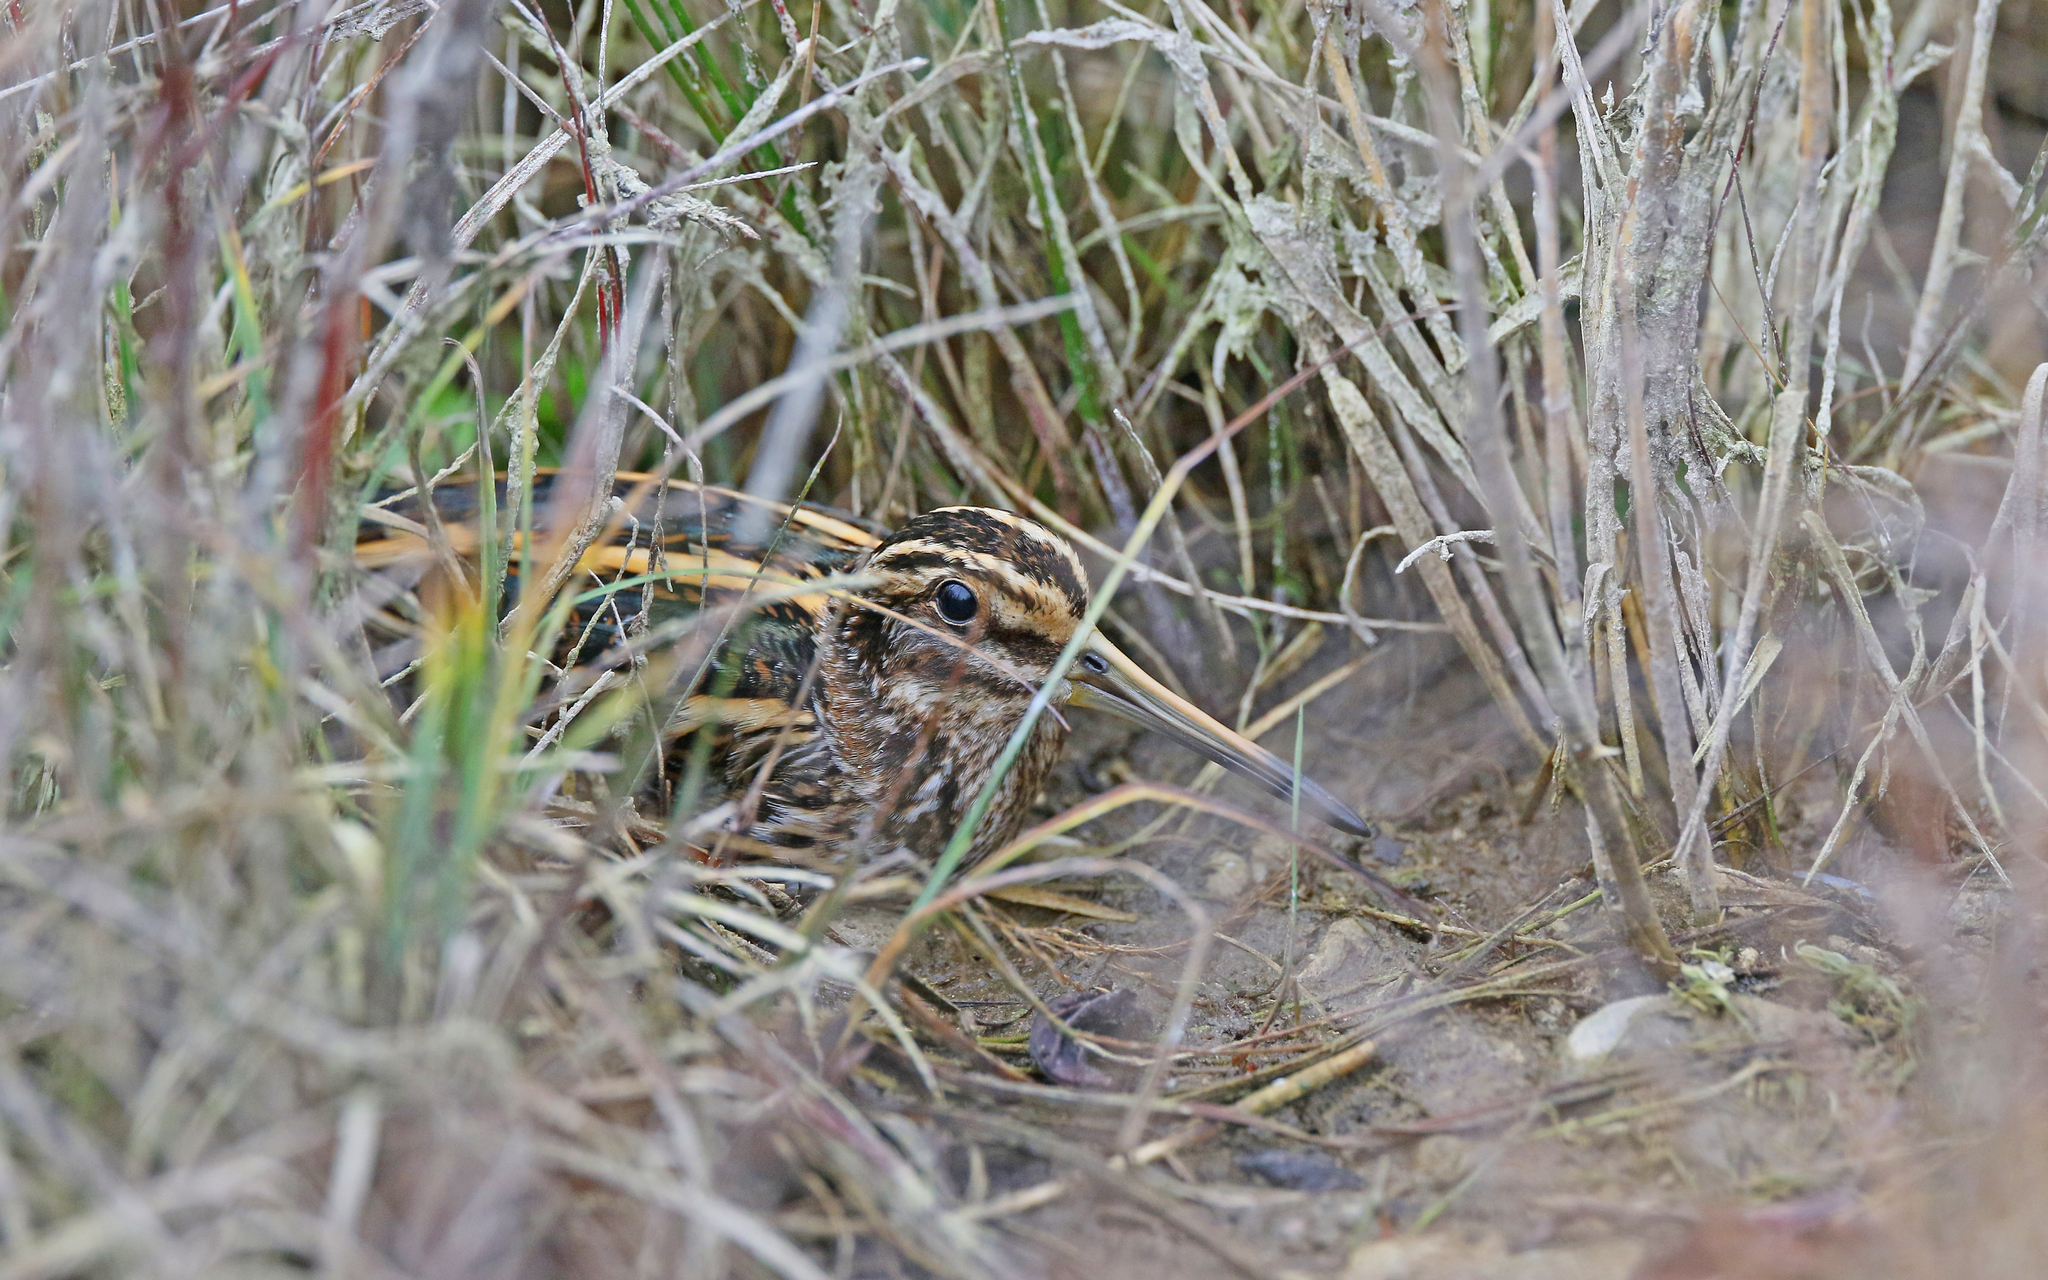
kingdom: Animalia
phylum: Chordata
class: Aves
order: Charadriiformes
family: Scolopacidae
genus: Lymnocryptes
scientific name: Lymnocryptes minimus
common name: Jack snipe
